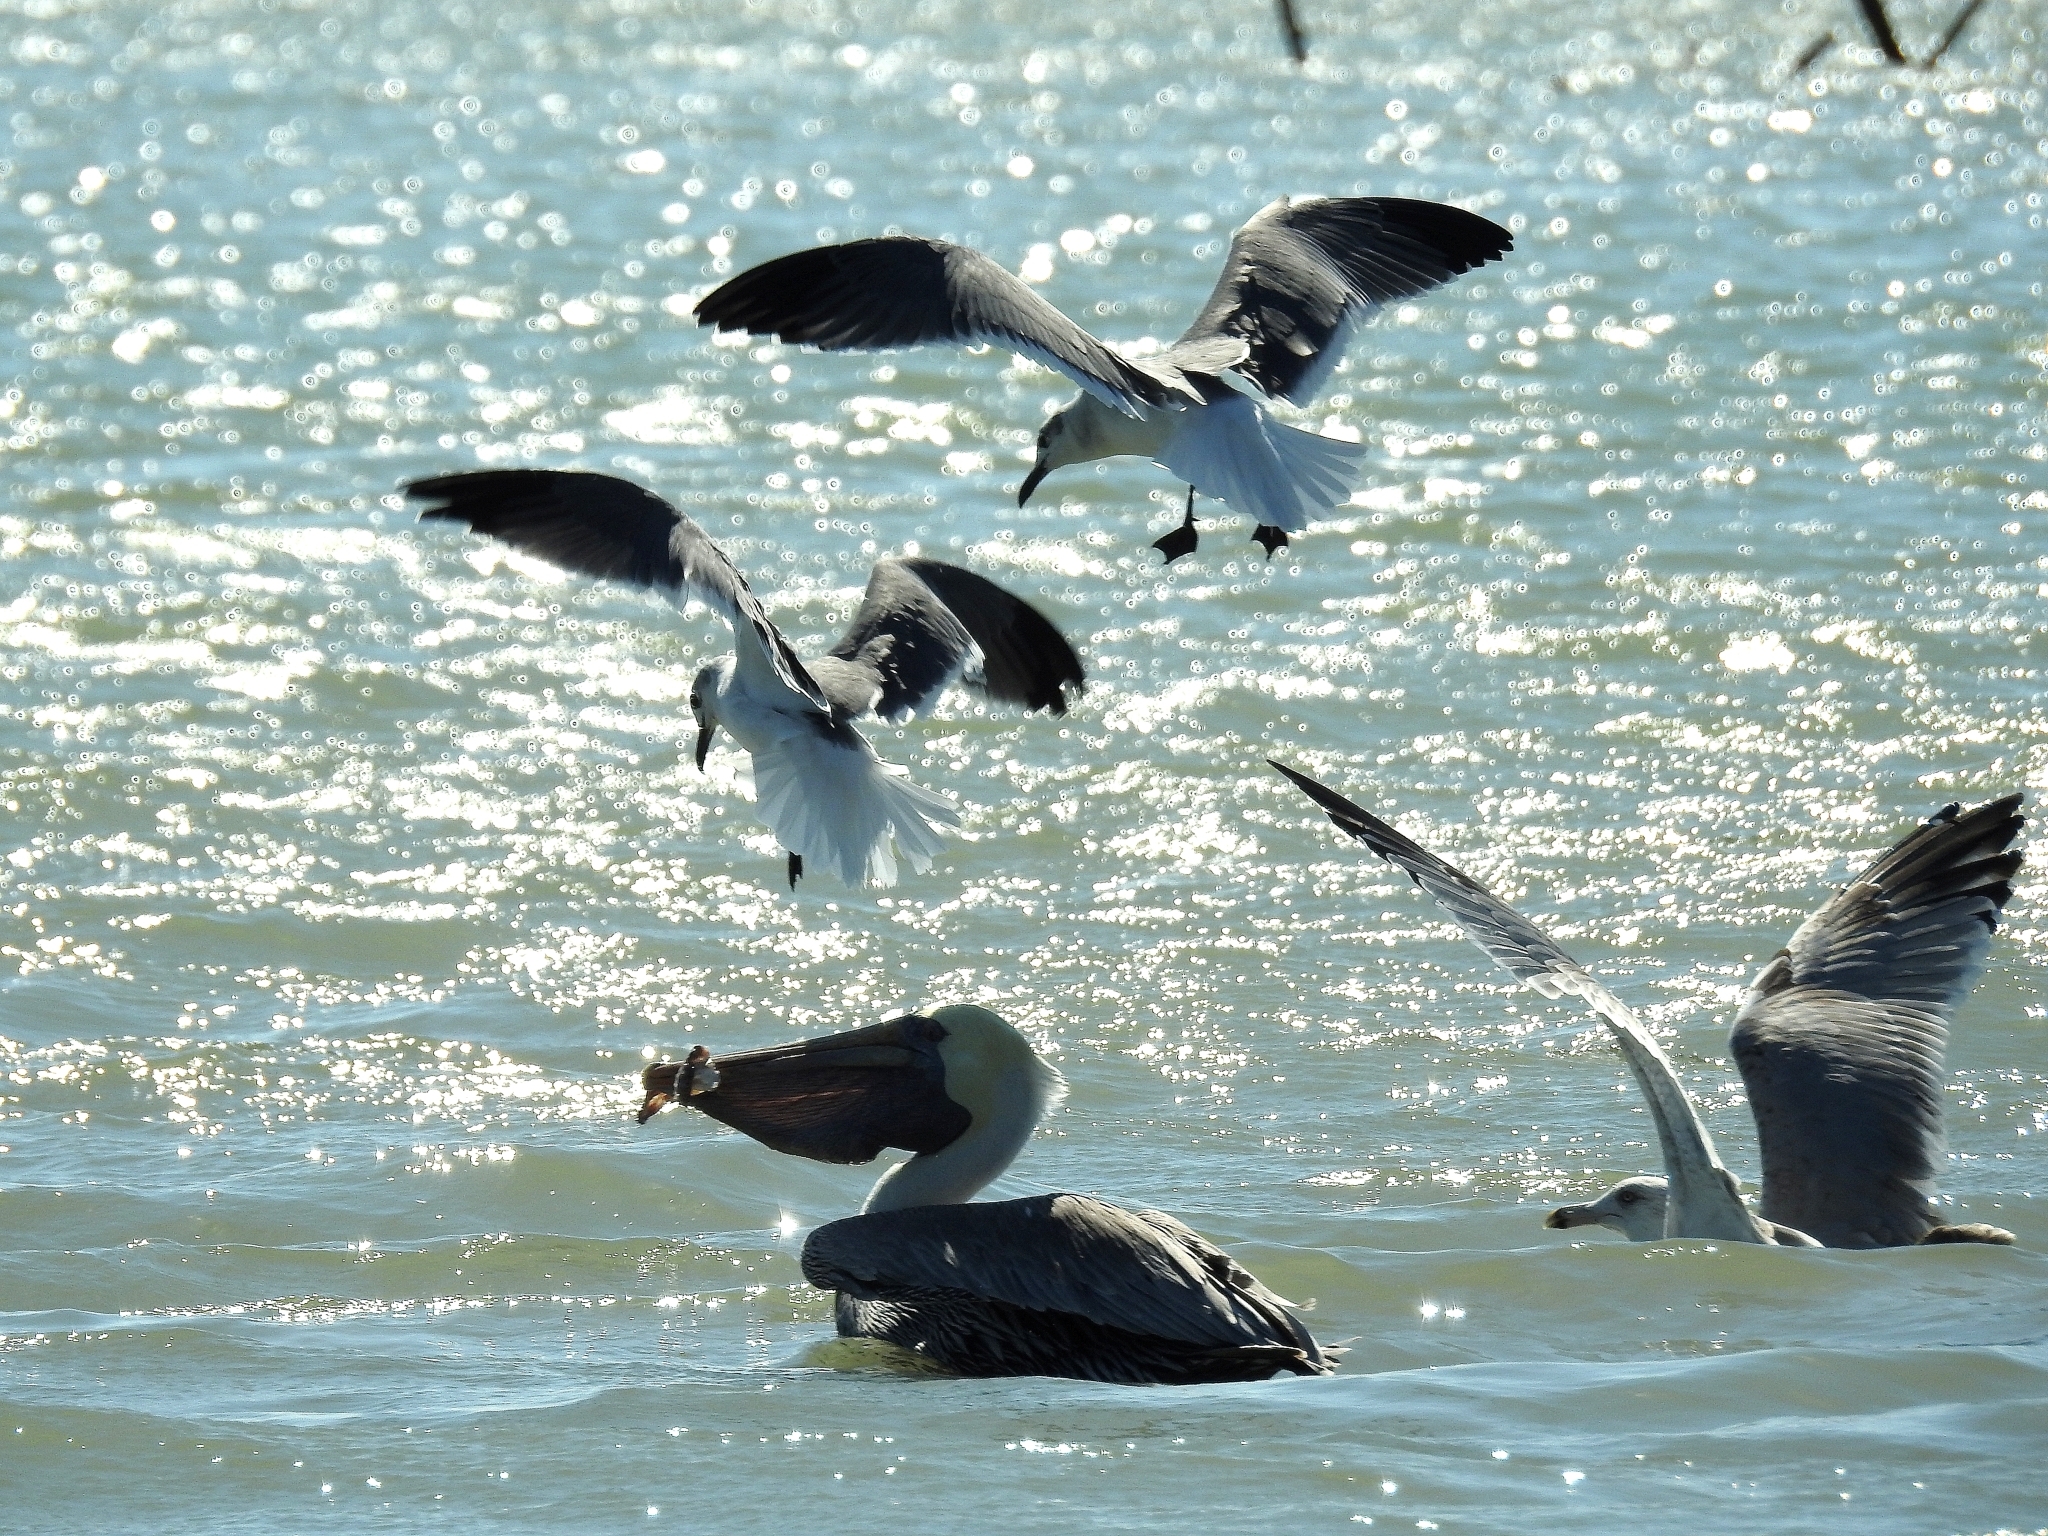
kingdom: Animalia
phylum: Chordata
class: Aves
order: Pelecaniformes
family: Pelecanidae
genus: Pelecanus
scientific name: Pelecanus occidentalis
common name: Brown pelican
